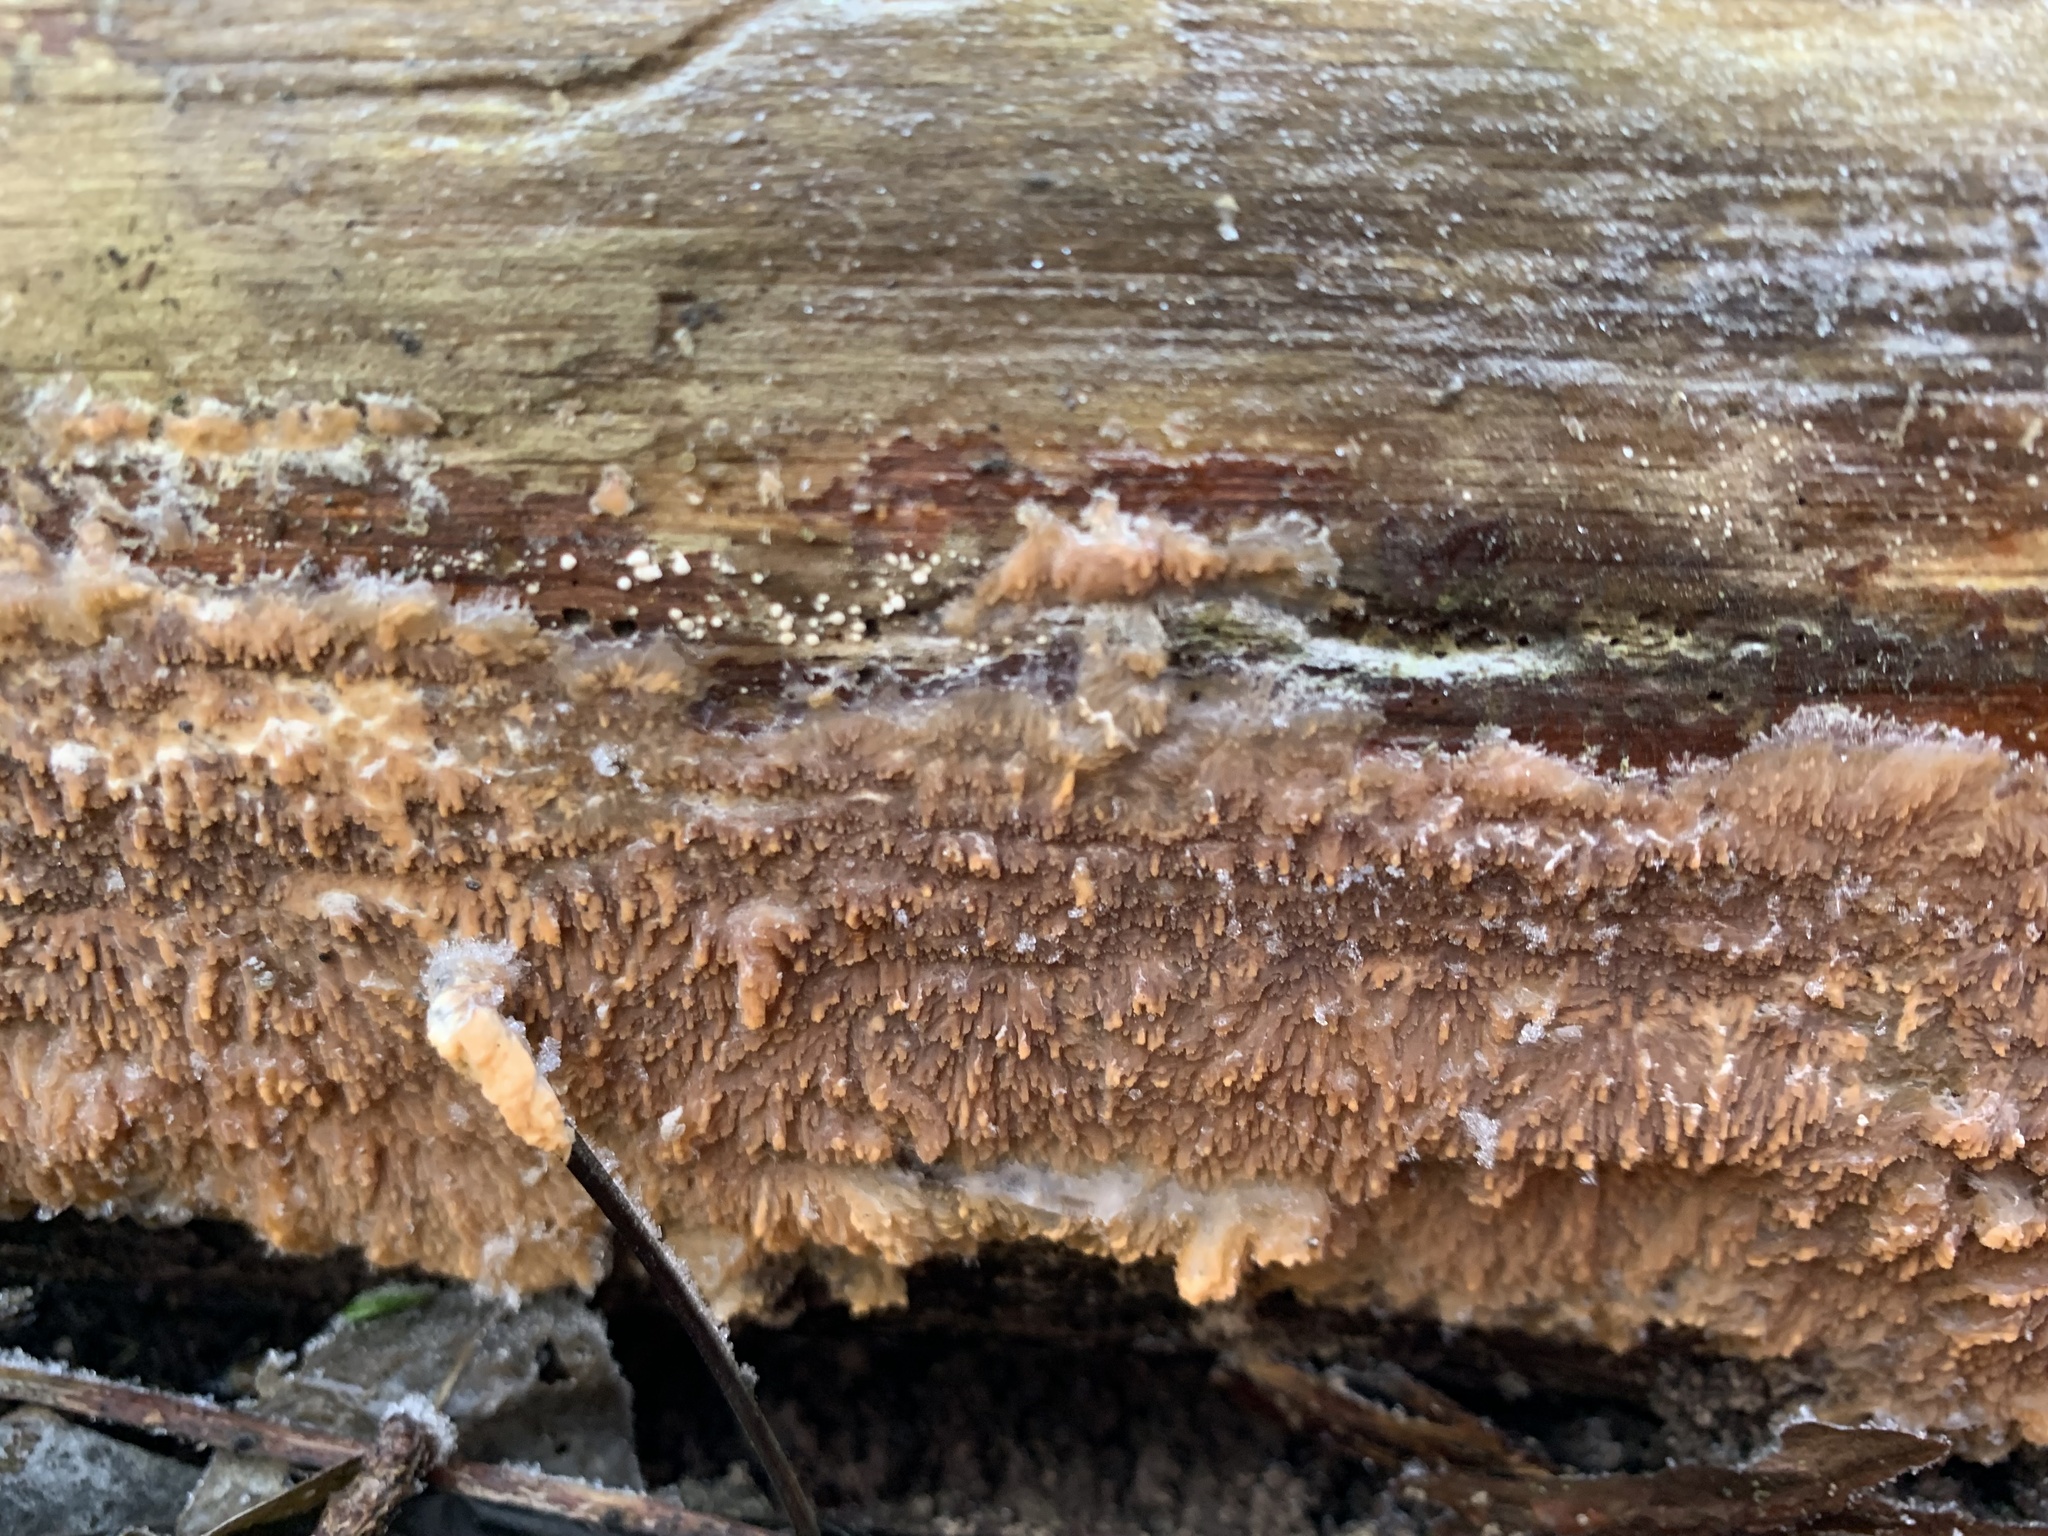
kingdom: Fungi
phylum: Basidiomycota
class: Agaricomycetes
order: Polyporales
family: Meruliaceae
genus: Phlebia
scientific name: Phlebia radiata
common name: Wrinkled crust
